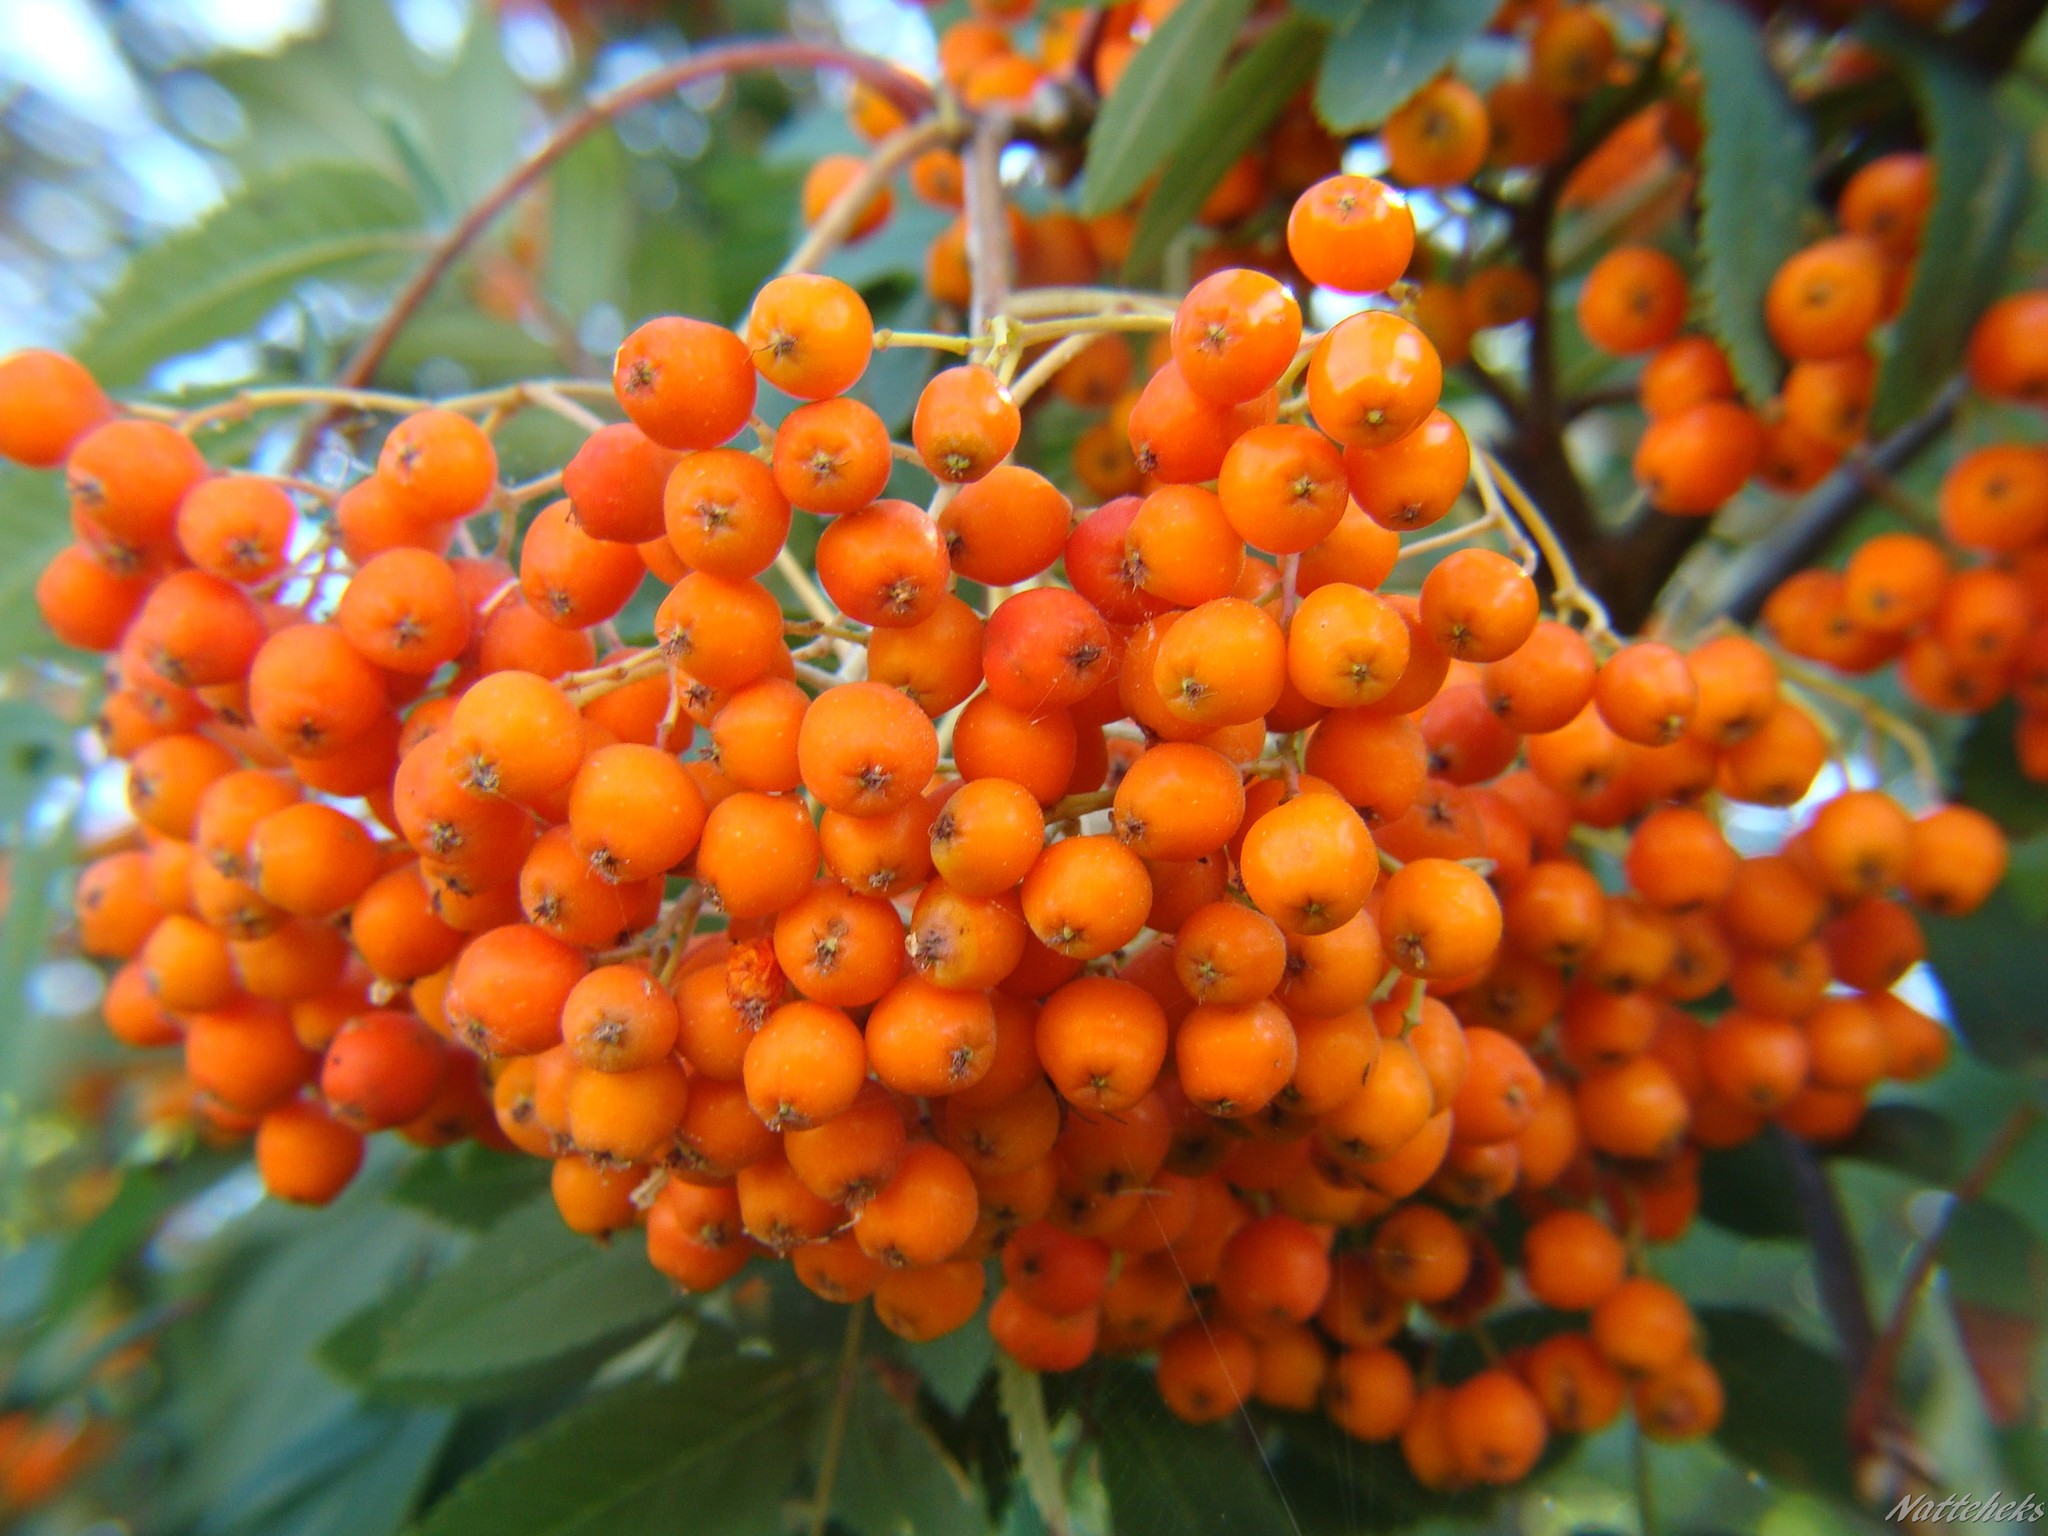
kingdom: Plantae
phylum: Tracheophyta
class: Magnoliopsida
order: Rosales
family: Rosaceae
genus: Sorbus
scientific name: Sorbus aucuparia
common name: Rowan
